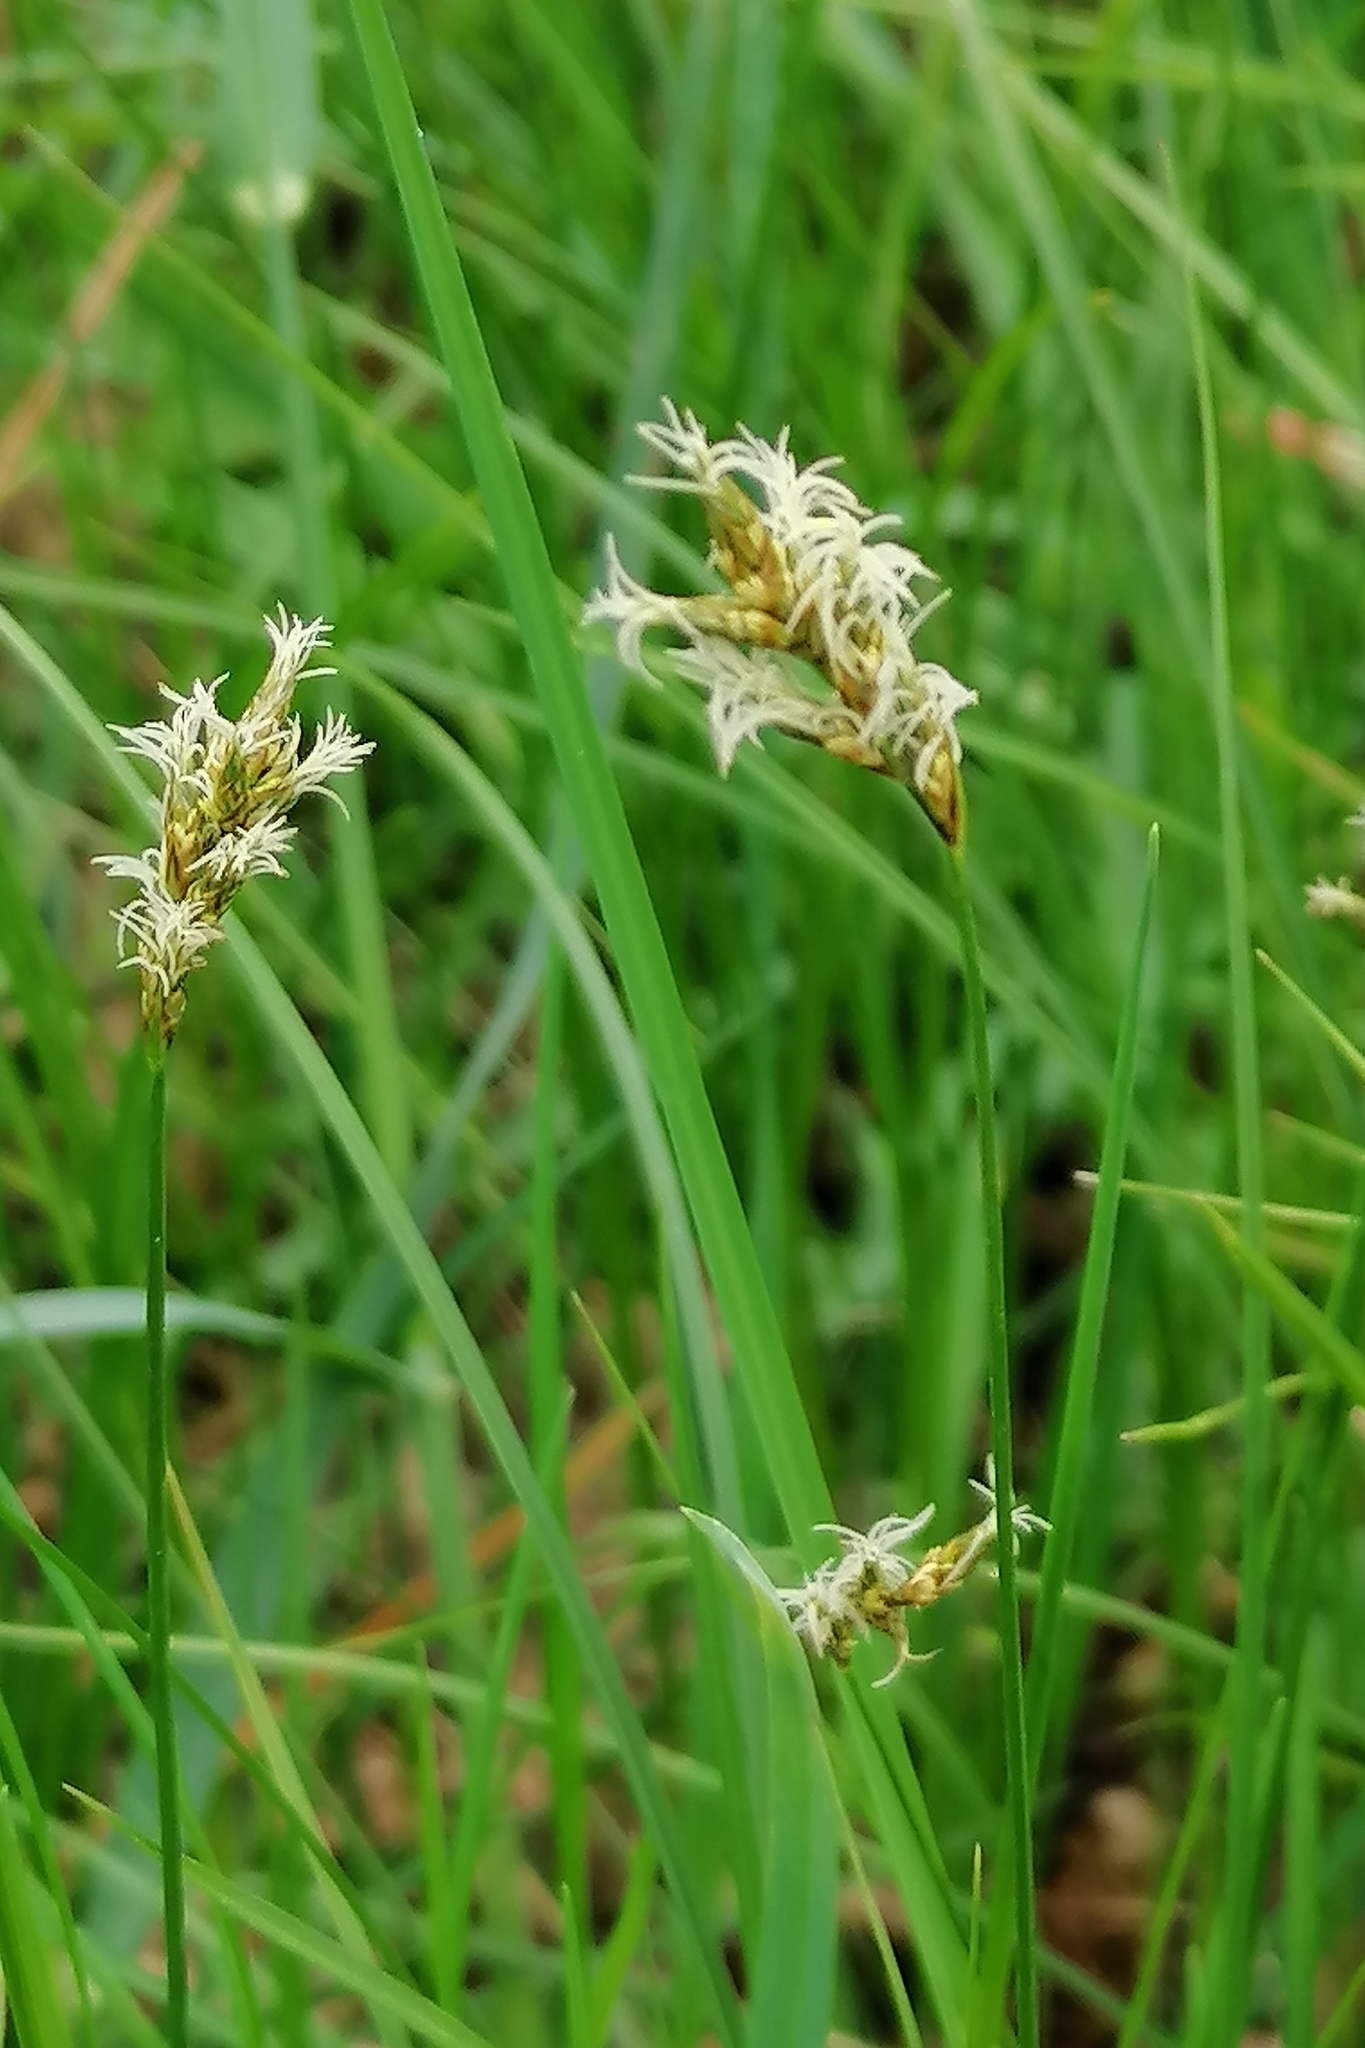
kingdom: Plantae
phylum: Tracheophyta
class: Liliopsida
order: Poales
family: Cyperaceae
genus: Carex
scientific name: Carex brizoides
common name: Quaking-grass sedge
